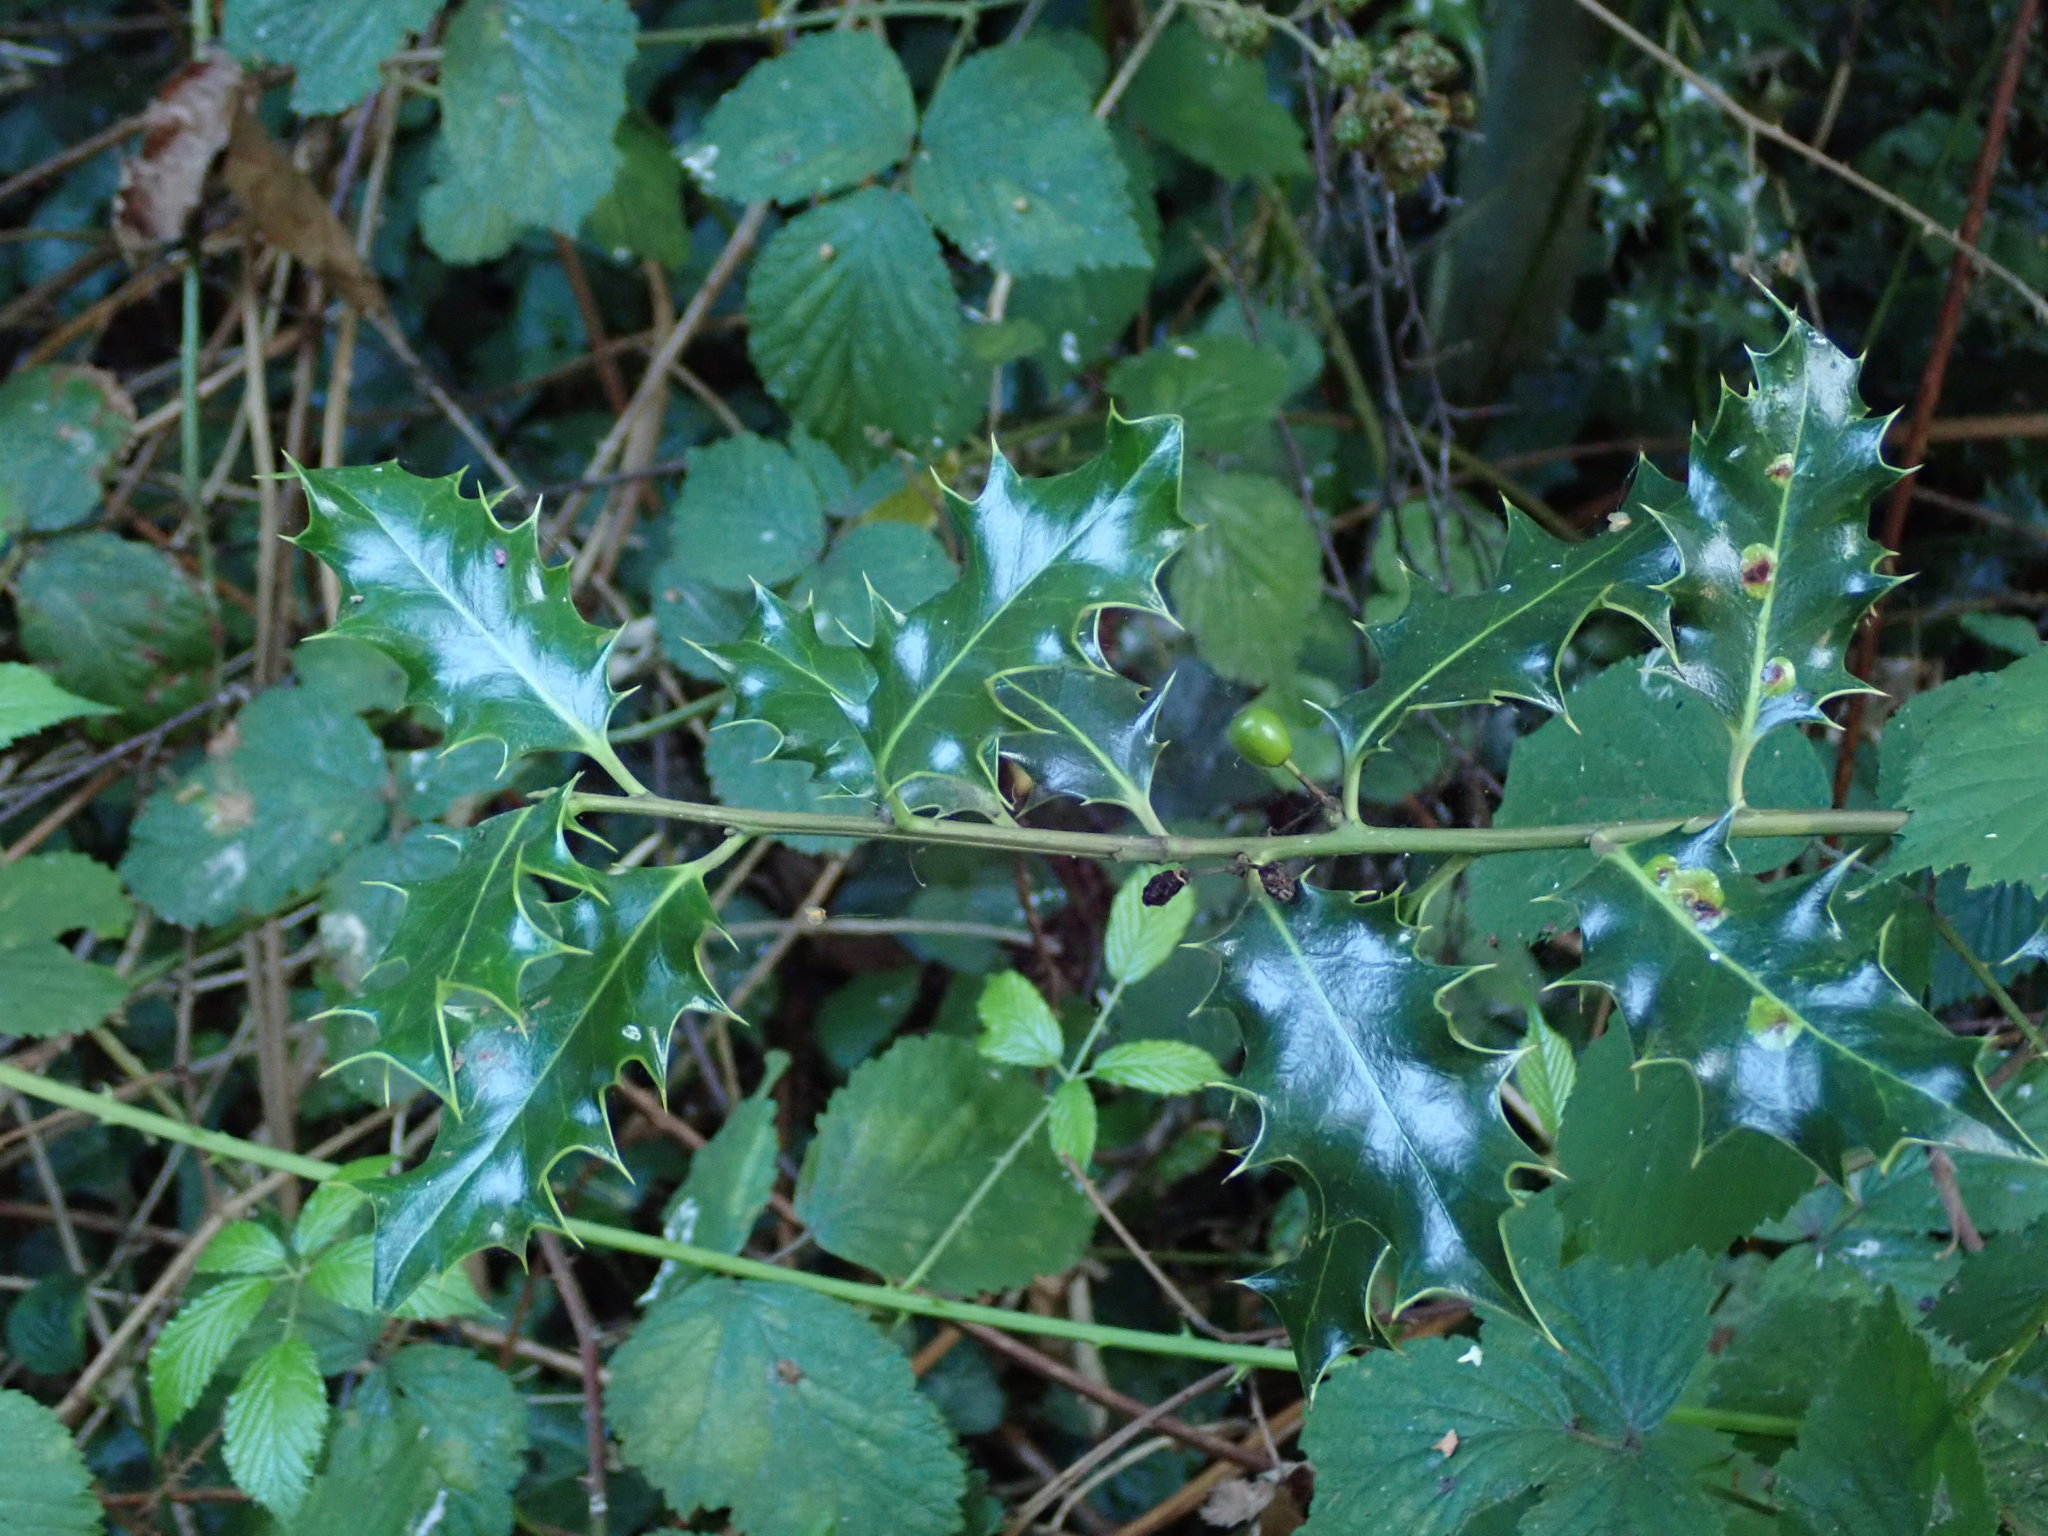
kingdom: Plantae
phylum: Tracheophyta
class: Magnoliopsida
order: Aquifoliales
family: Aquifoliaceae
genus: Ilex
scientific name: Ilex aquifolium
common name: English holly
